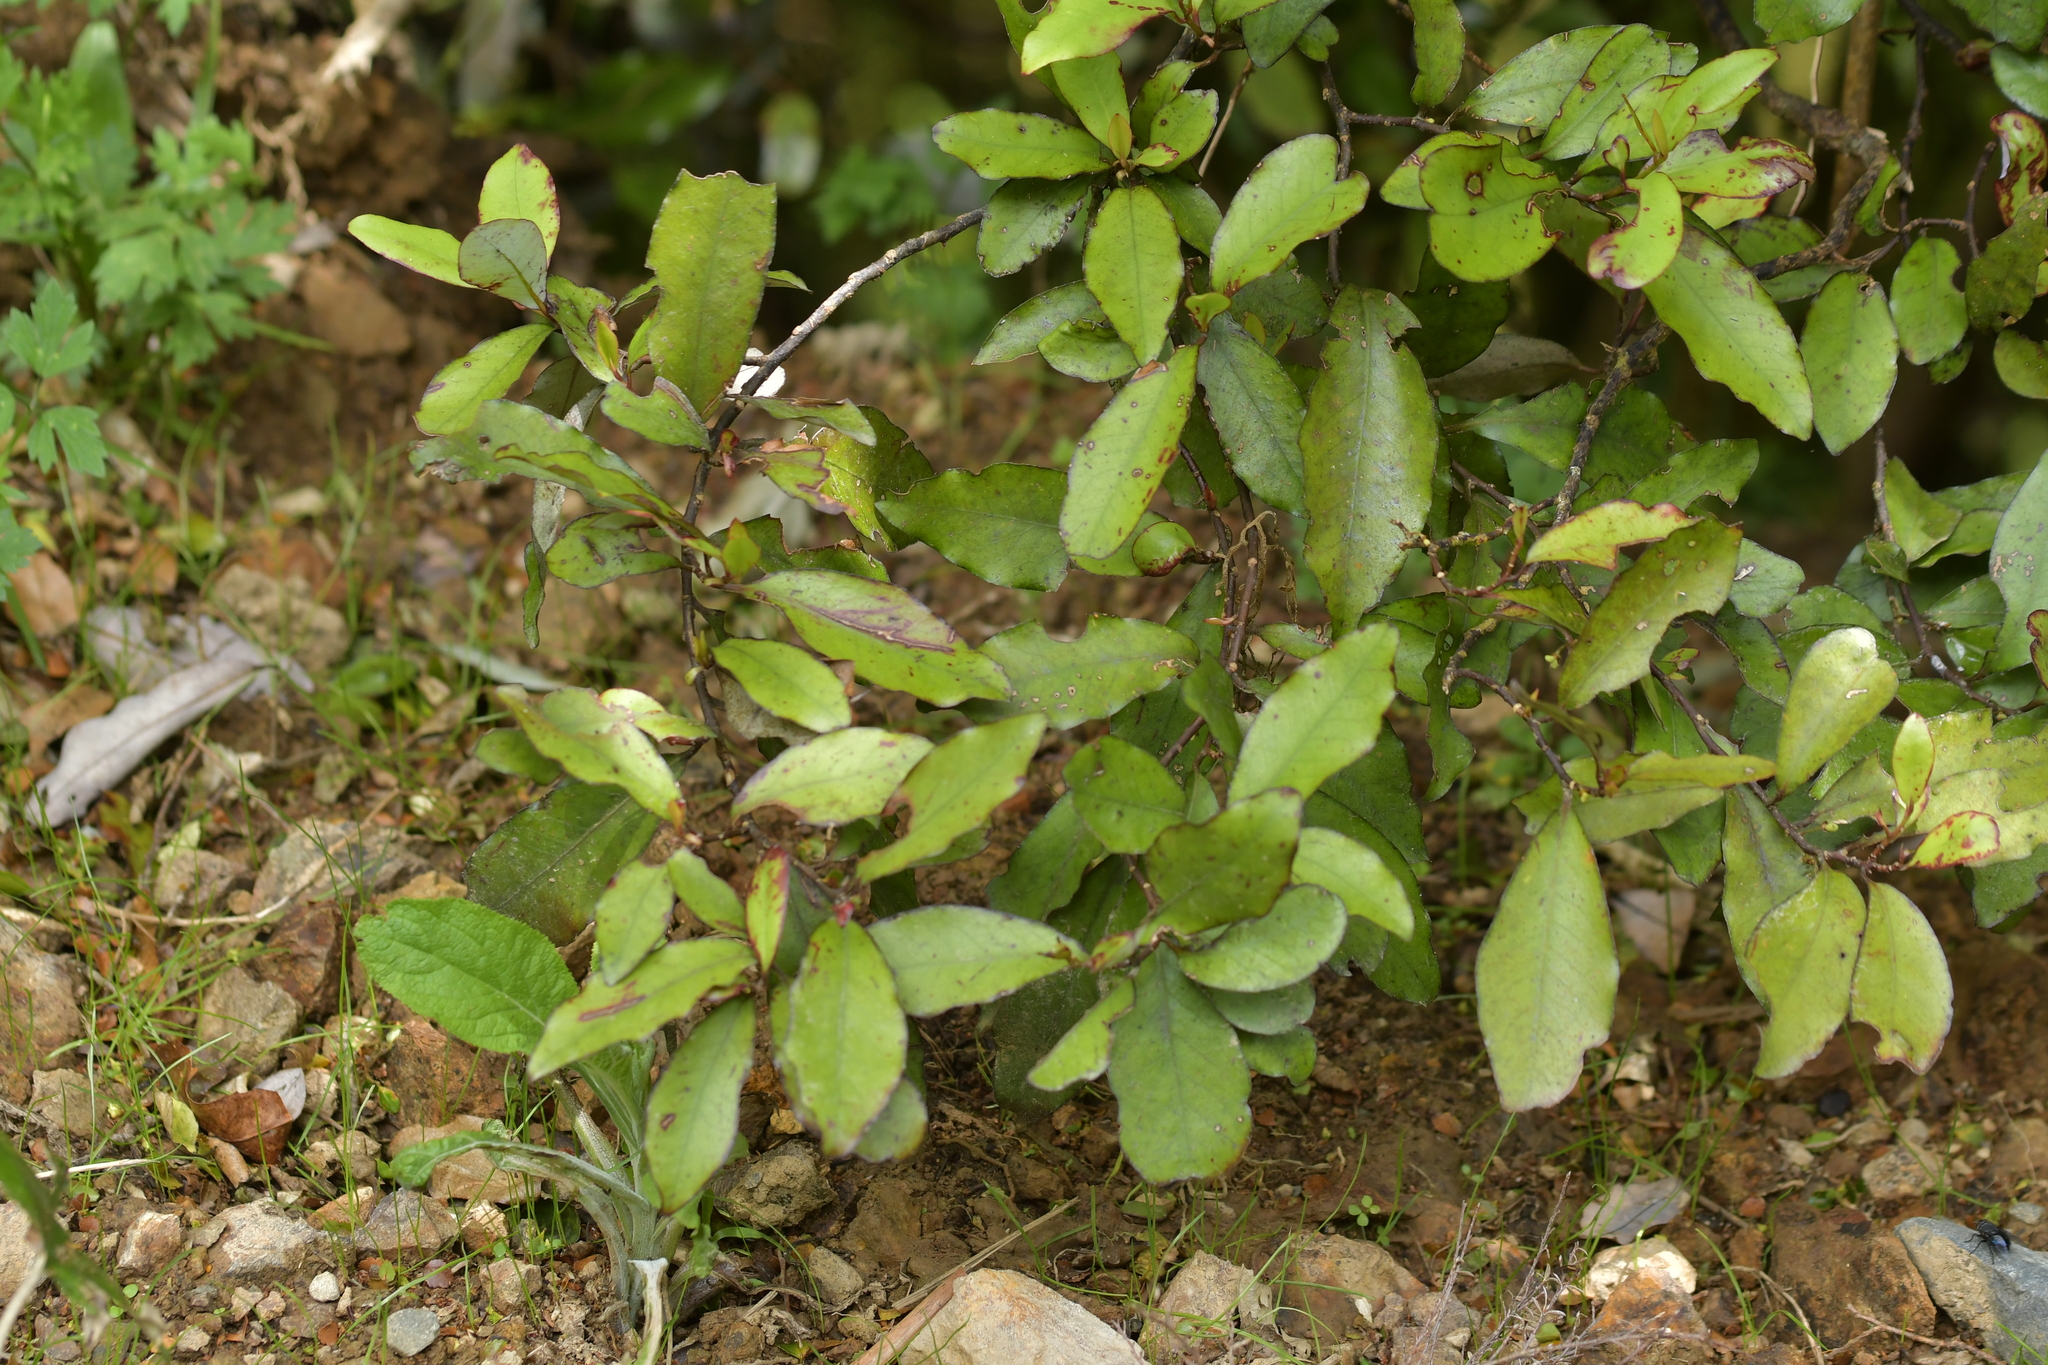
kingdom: Plantae
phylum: Tracheophyta
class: Magnoliopsida
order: Canellales
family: Winteraceae
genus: Pseudowintera
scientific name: Pseudowintera colorata
